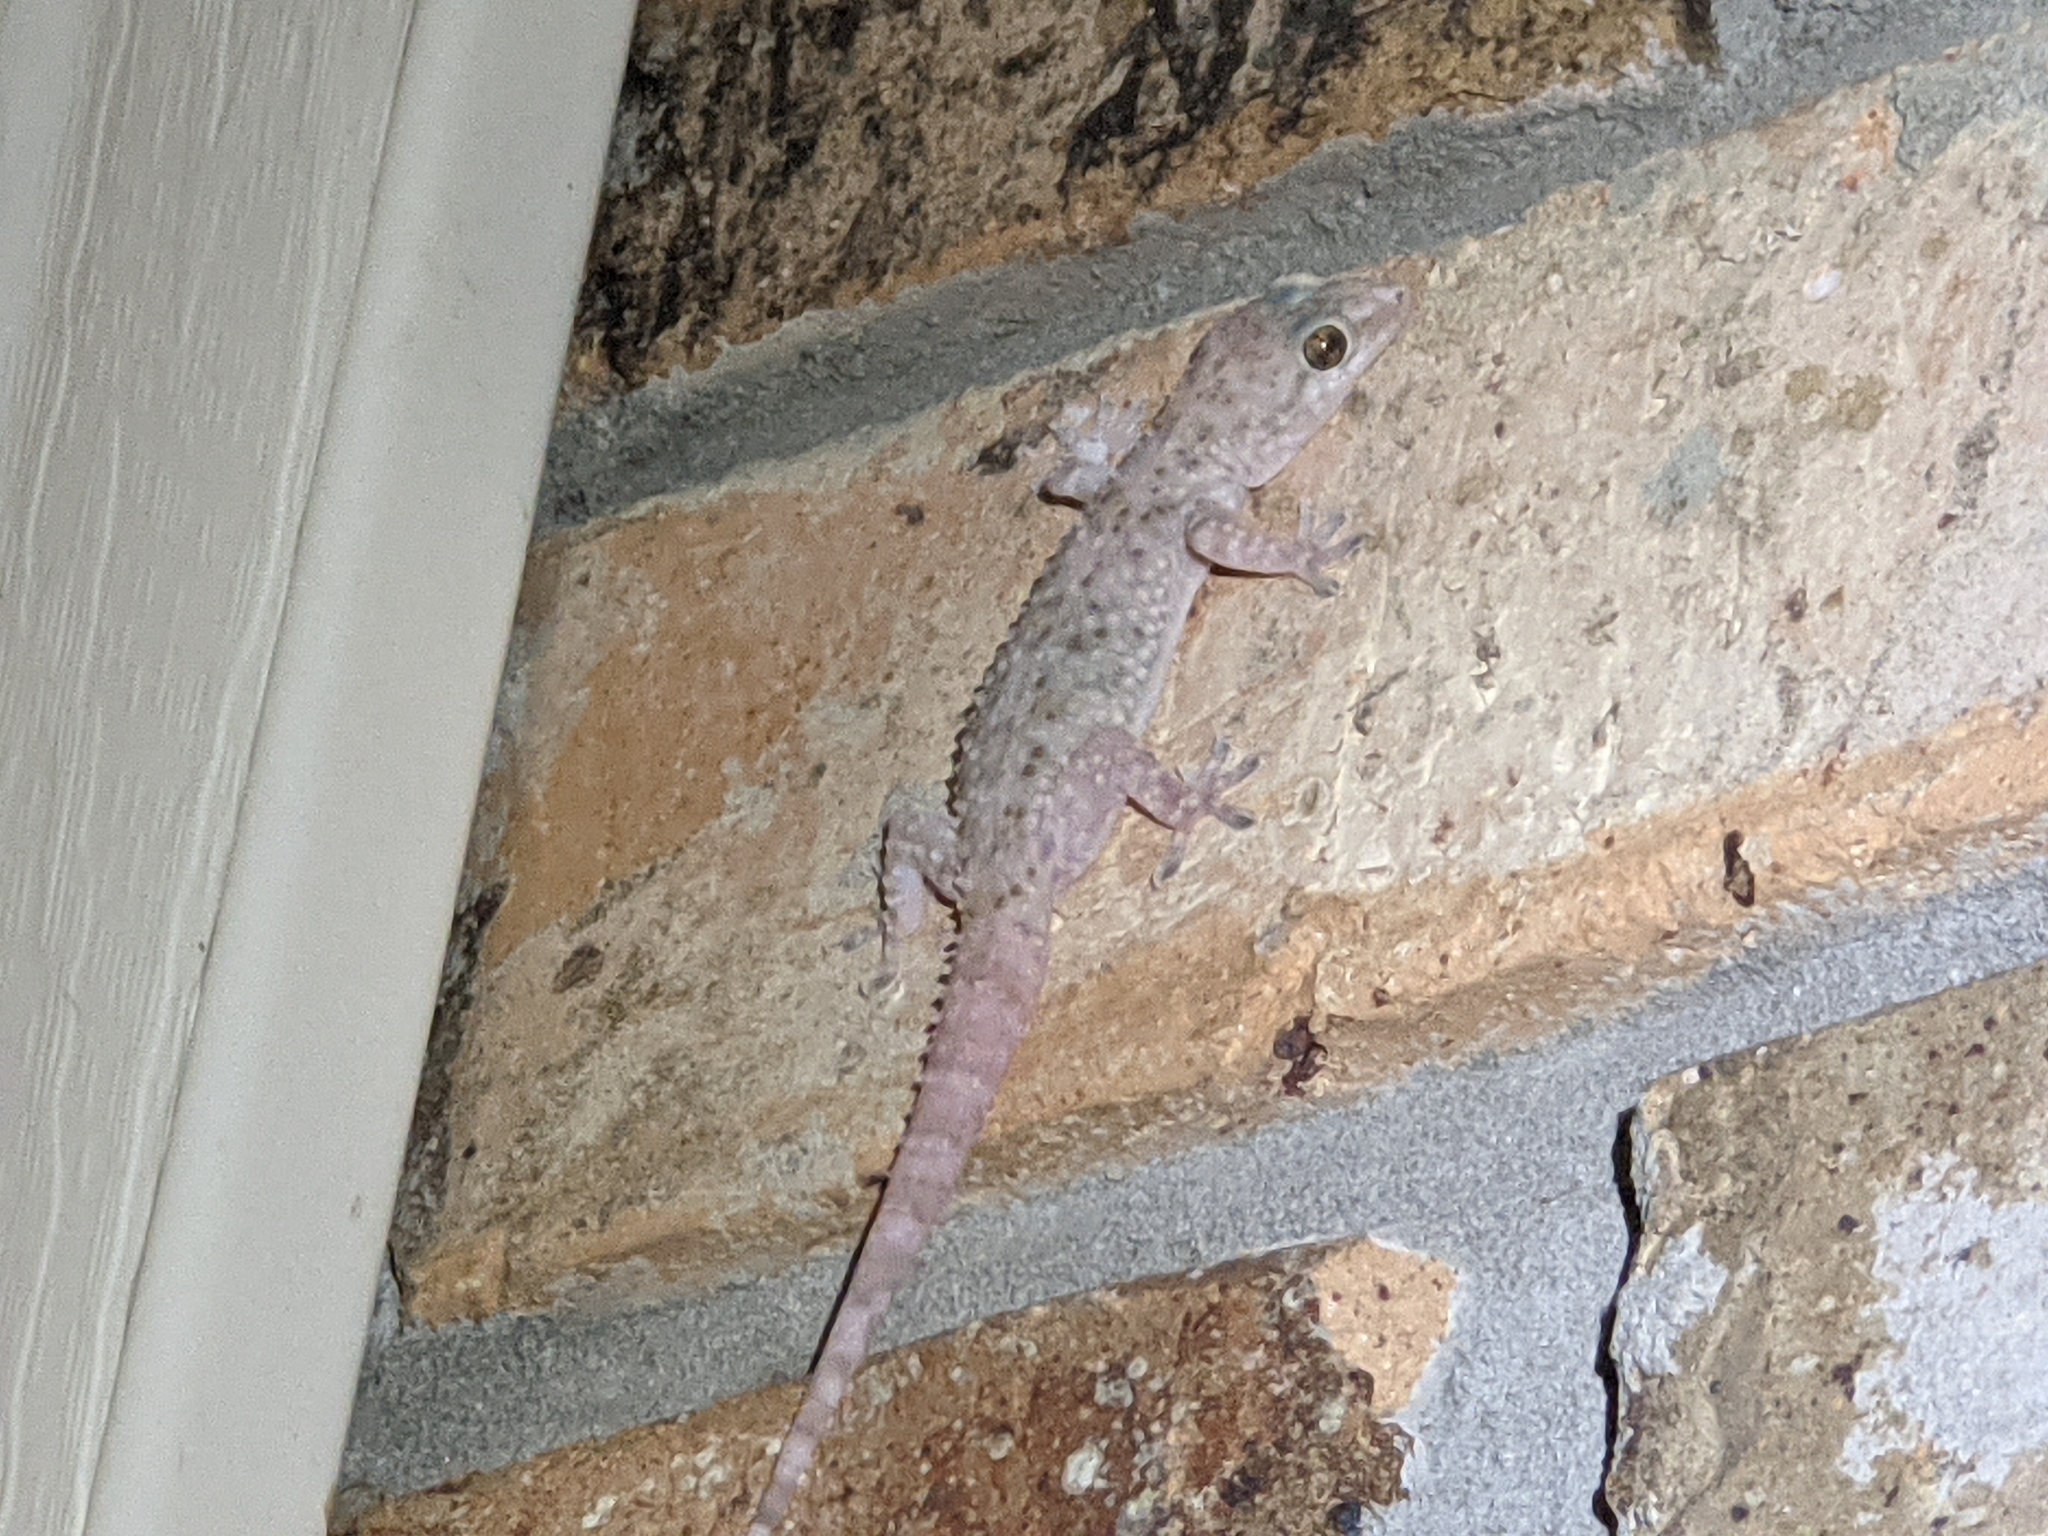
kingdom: Animalia
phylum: Chordata
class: Squamata
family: Gekkonidae
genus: Hemidactylus
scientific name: Hemidactylus turcicus
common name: Turkish gecko
